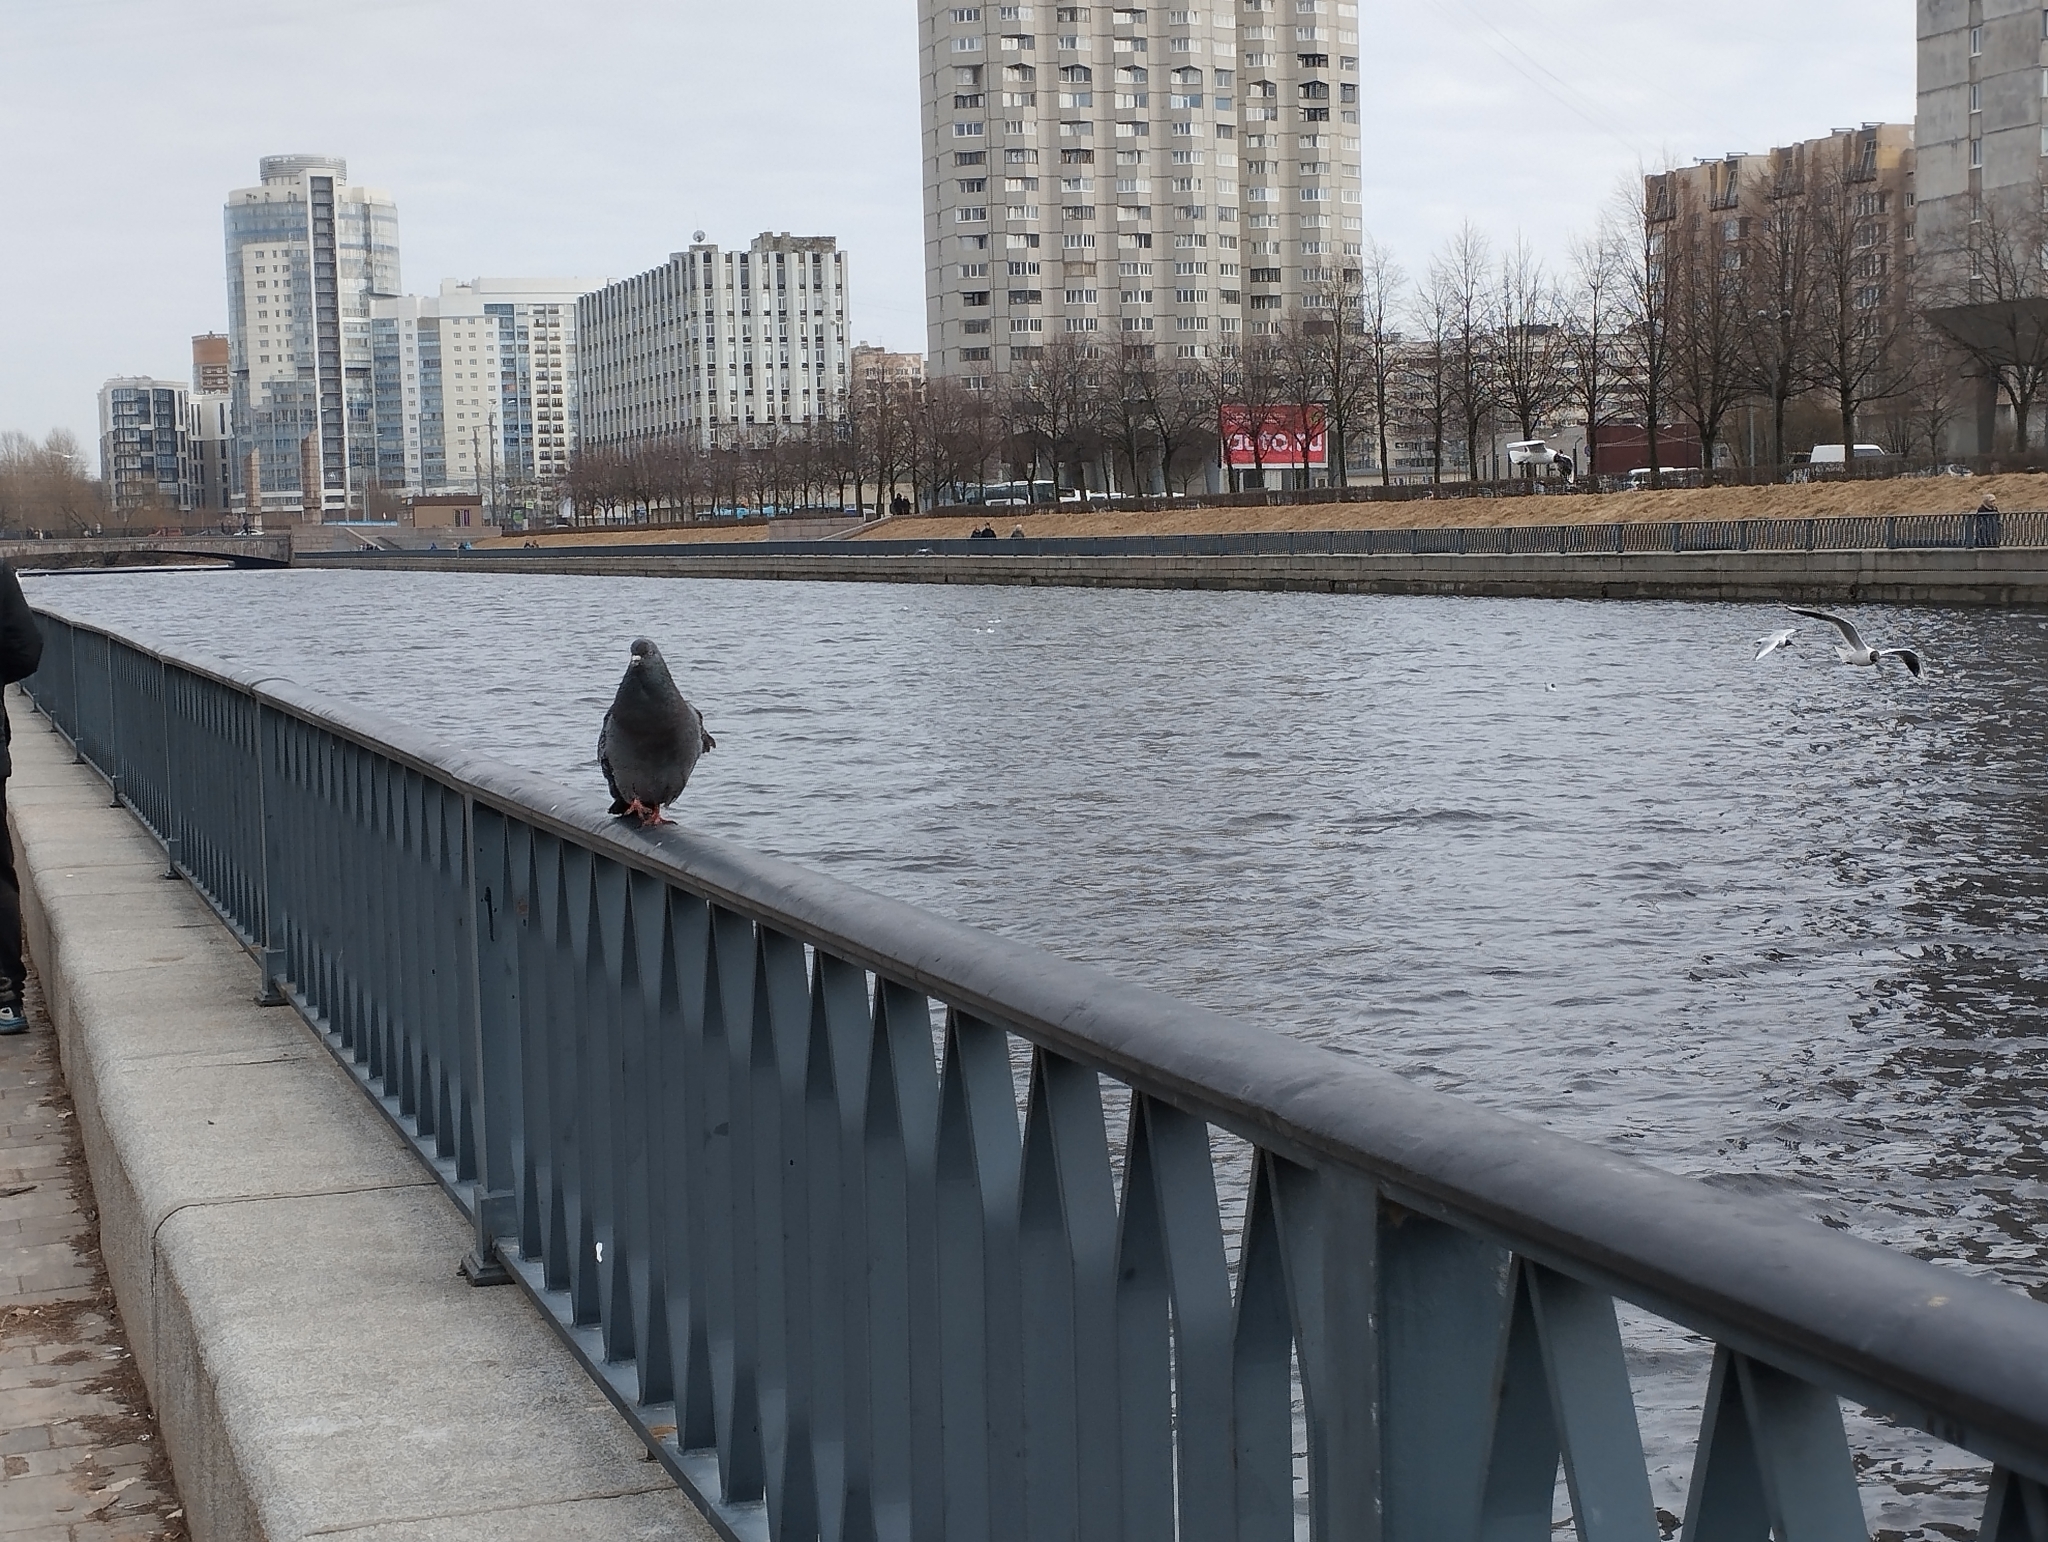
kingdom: Animalia
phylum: Chordata
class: Aves
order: Columbiformes
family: Columbidae
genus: Columba
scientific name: Columba livia
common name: Rock pigeon
